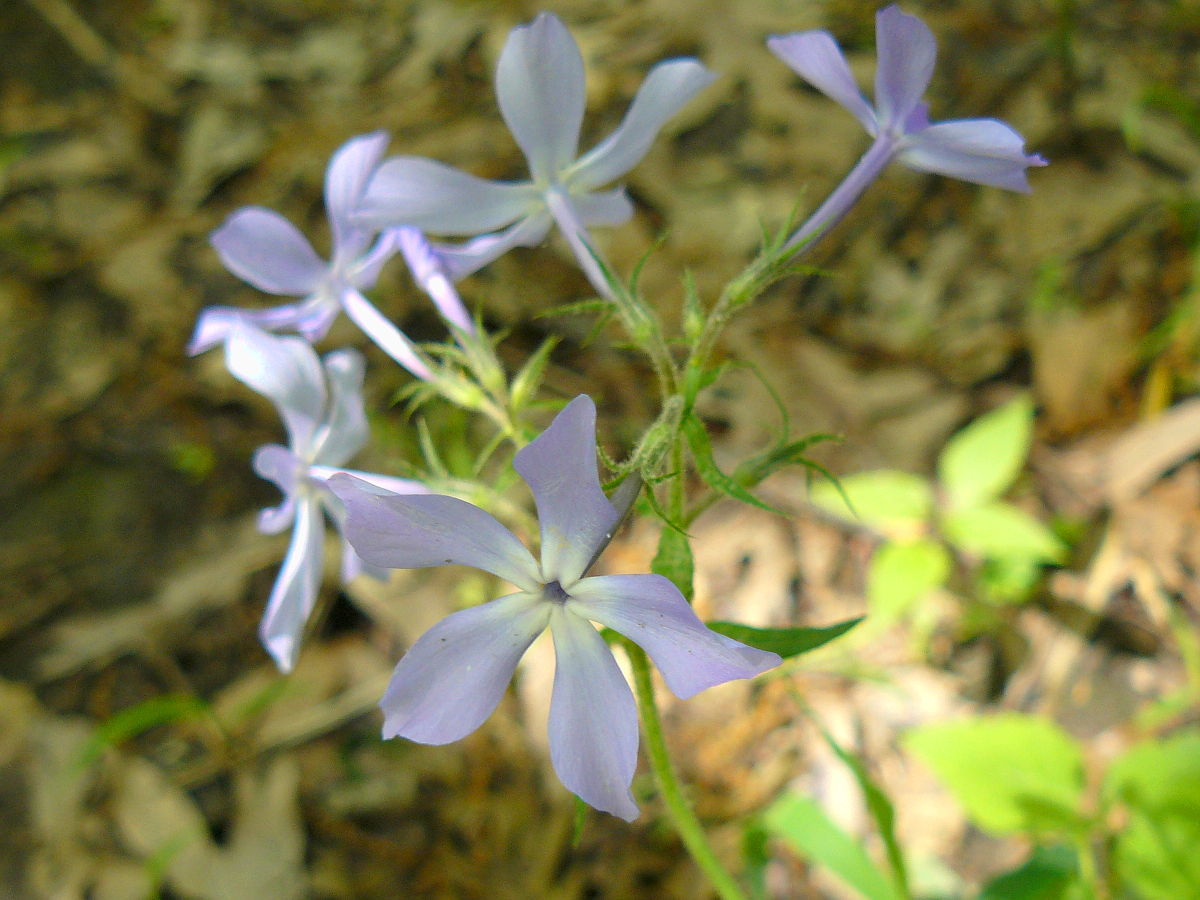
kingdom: Plantae
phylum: Tracheophyta
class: Magnoliopsida
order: Ericales
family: Polemoniaceae
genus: Phlox
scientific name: Phlox divaricata
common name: Blue phlox
